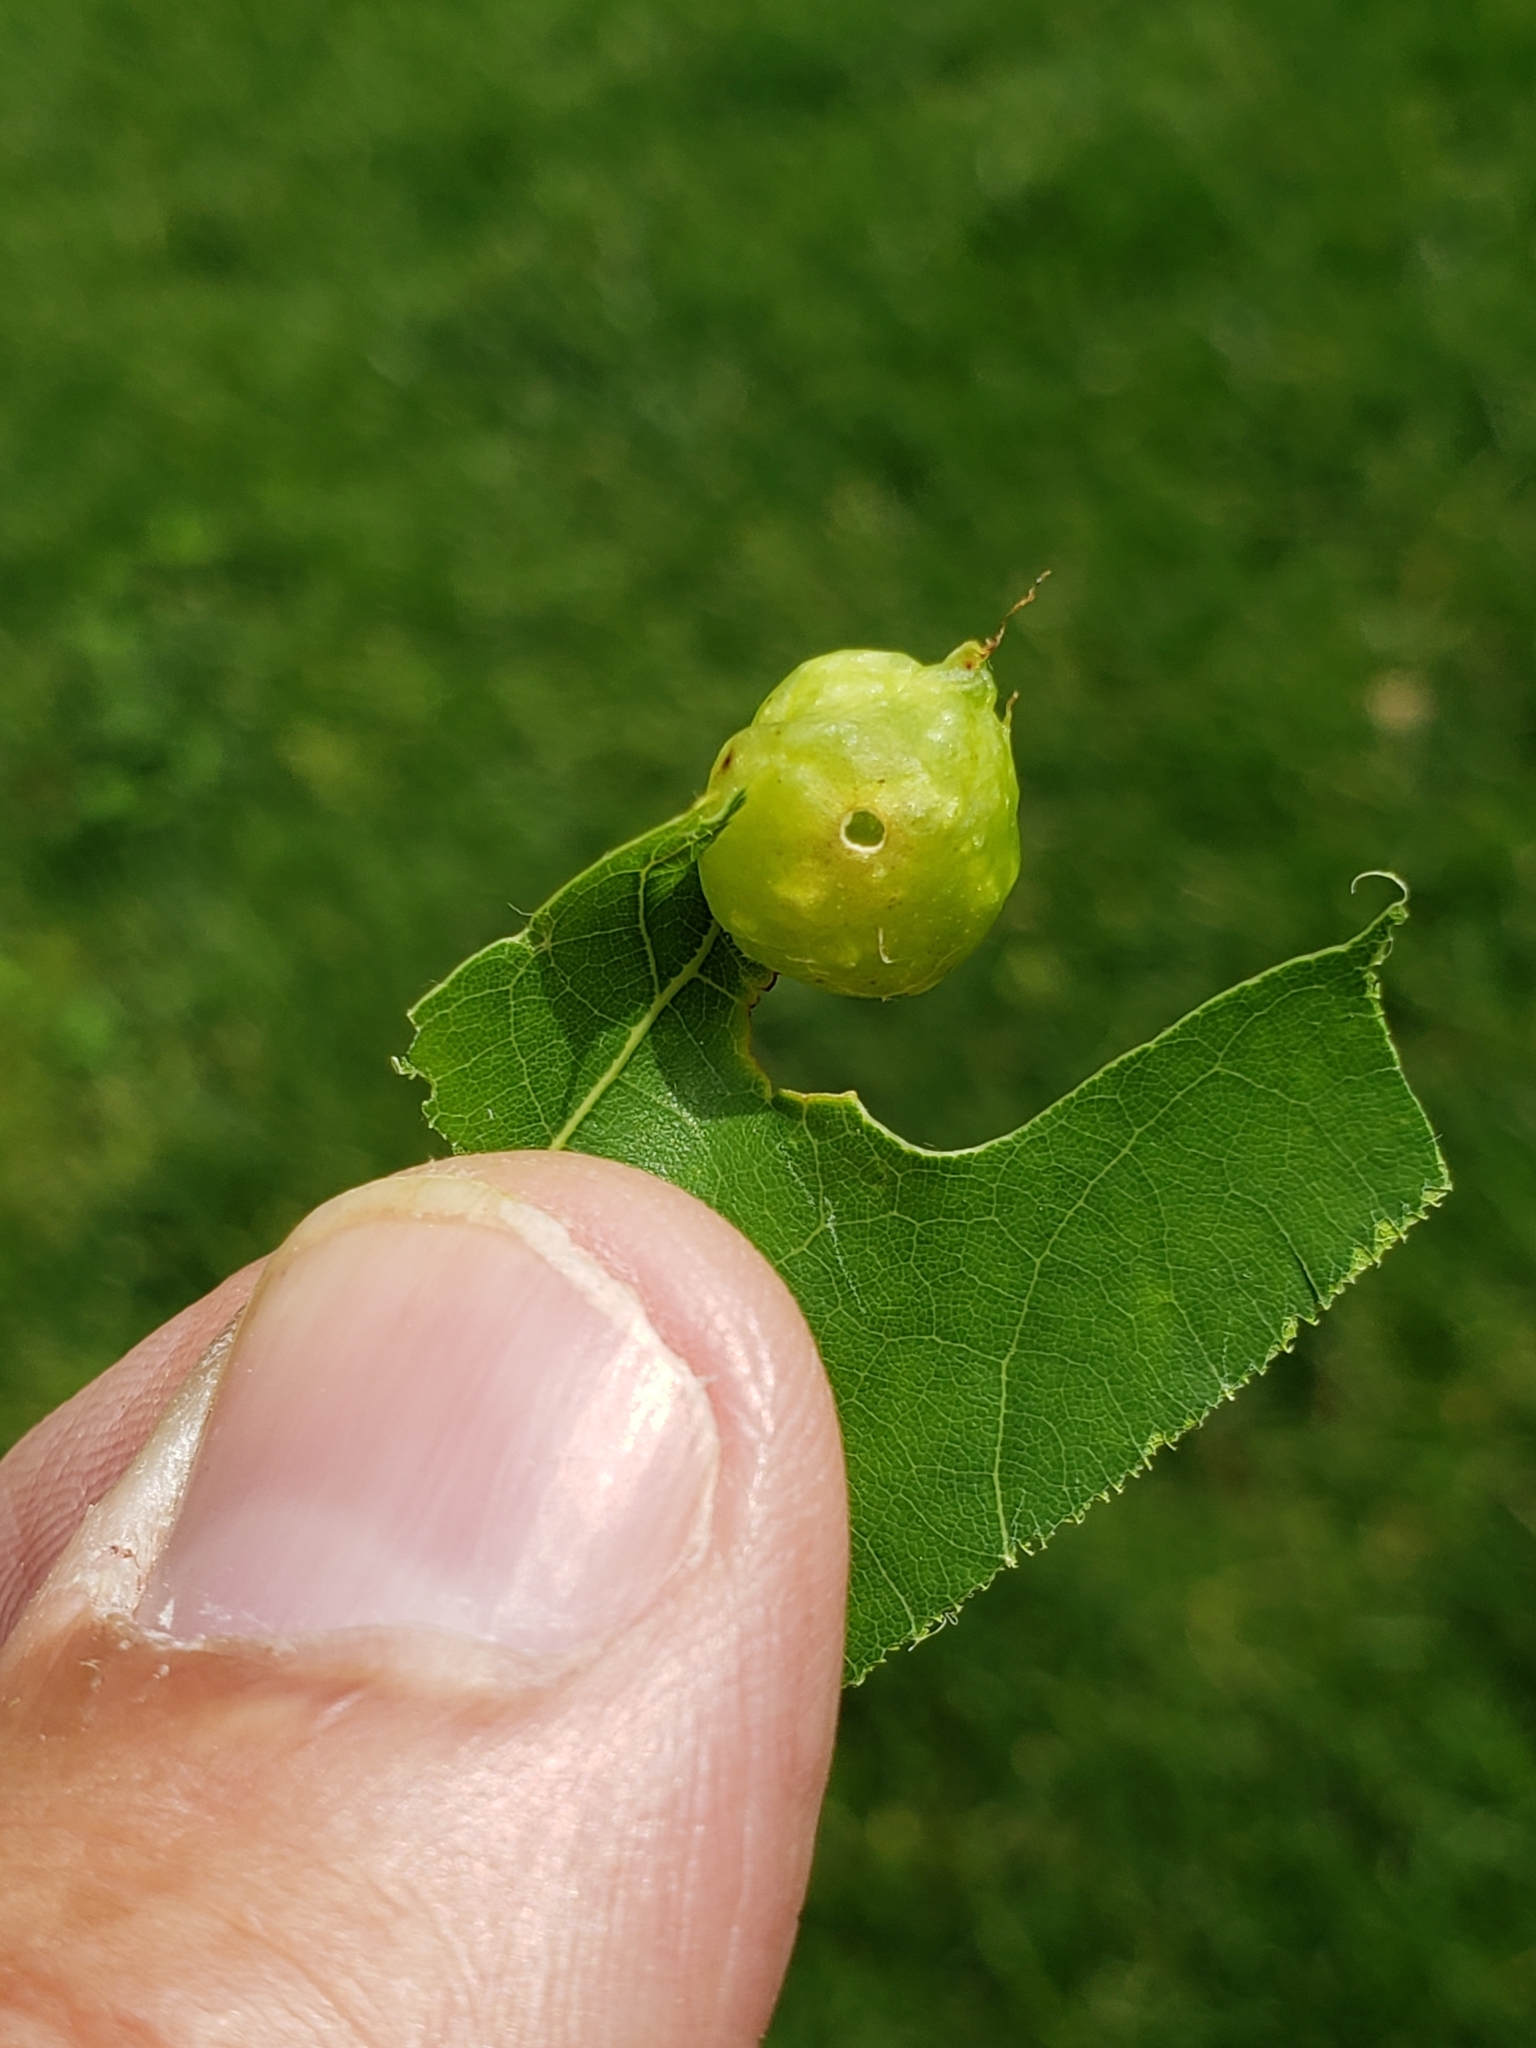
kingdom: Animalia
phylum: Arthropoda
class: Insecta
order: Hymenoptera
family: Cynipidae
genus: Dryocosmus
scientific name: Dryocosmus quercuspalustris
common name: Succulent oak gall wasp
